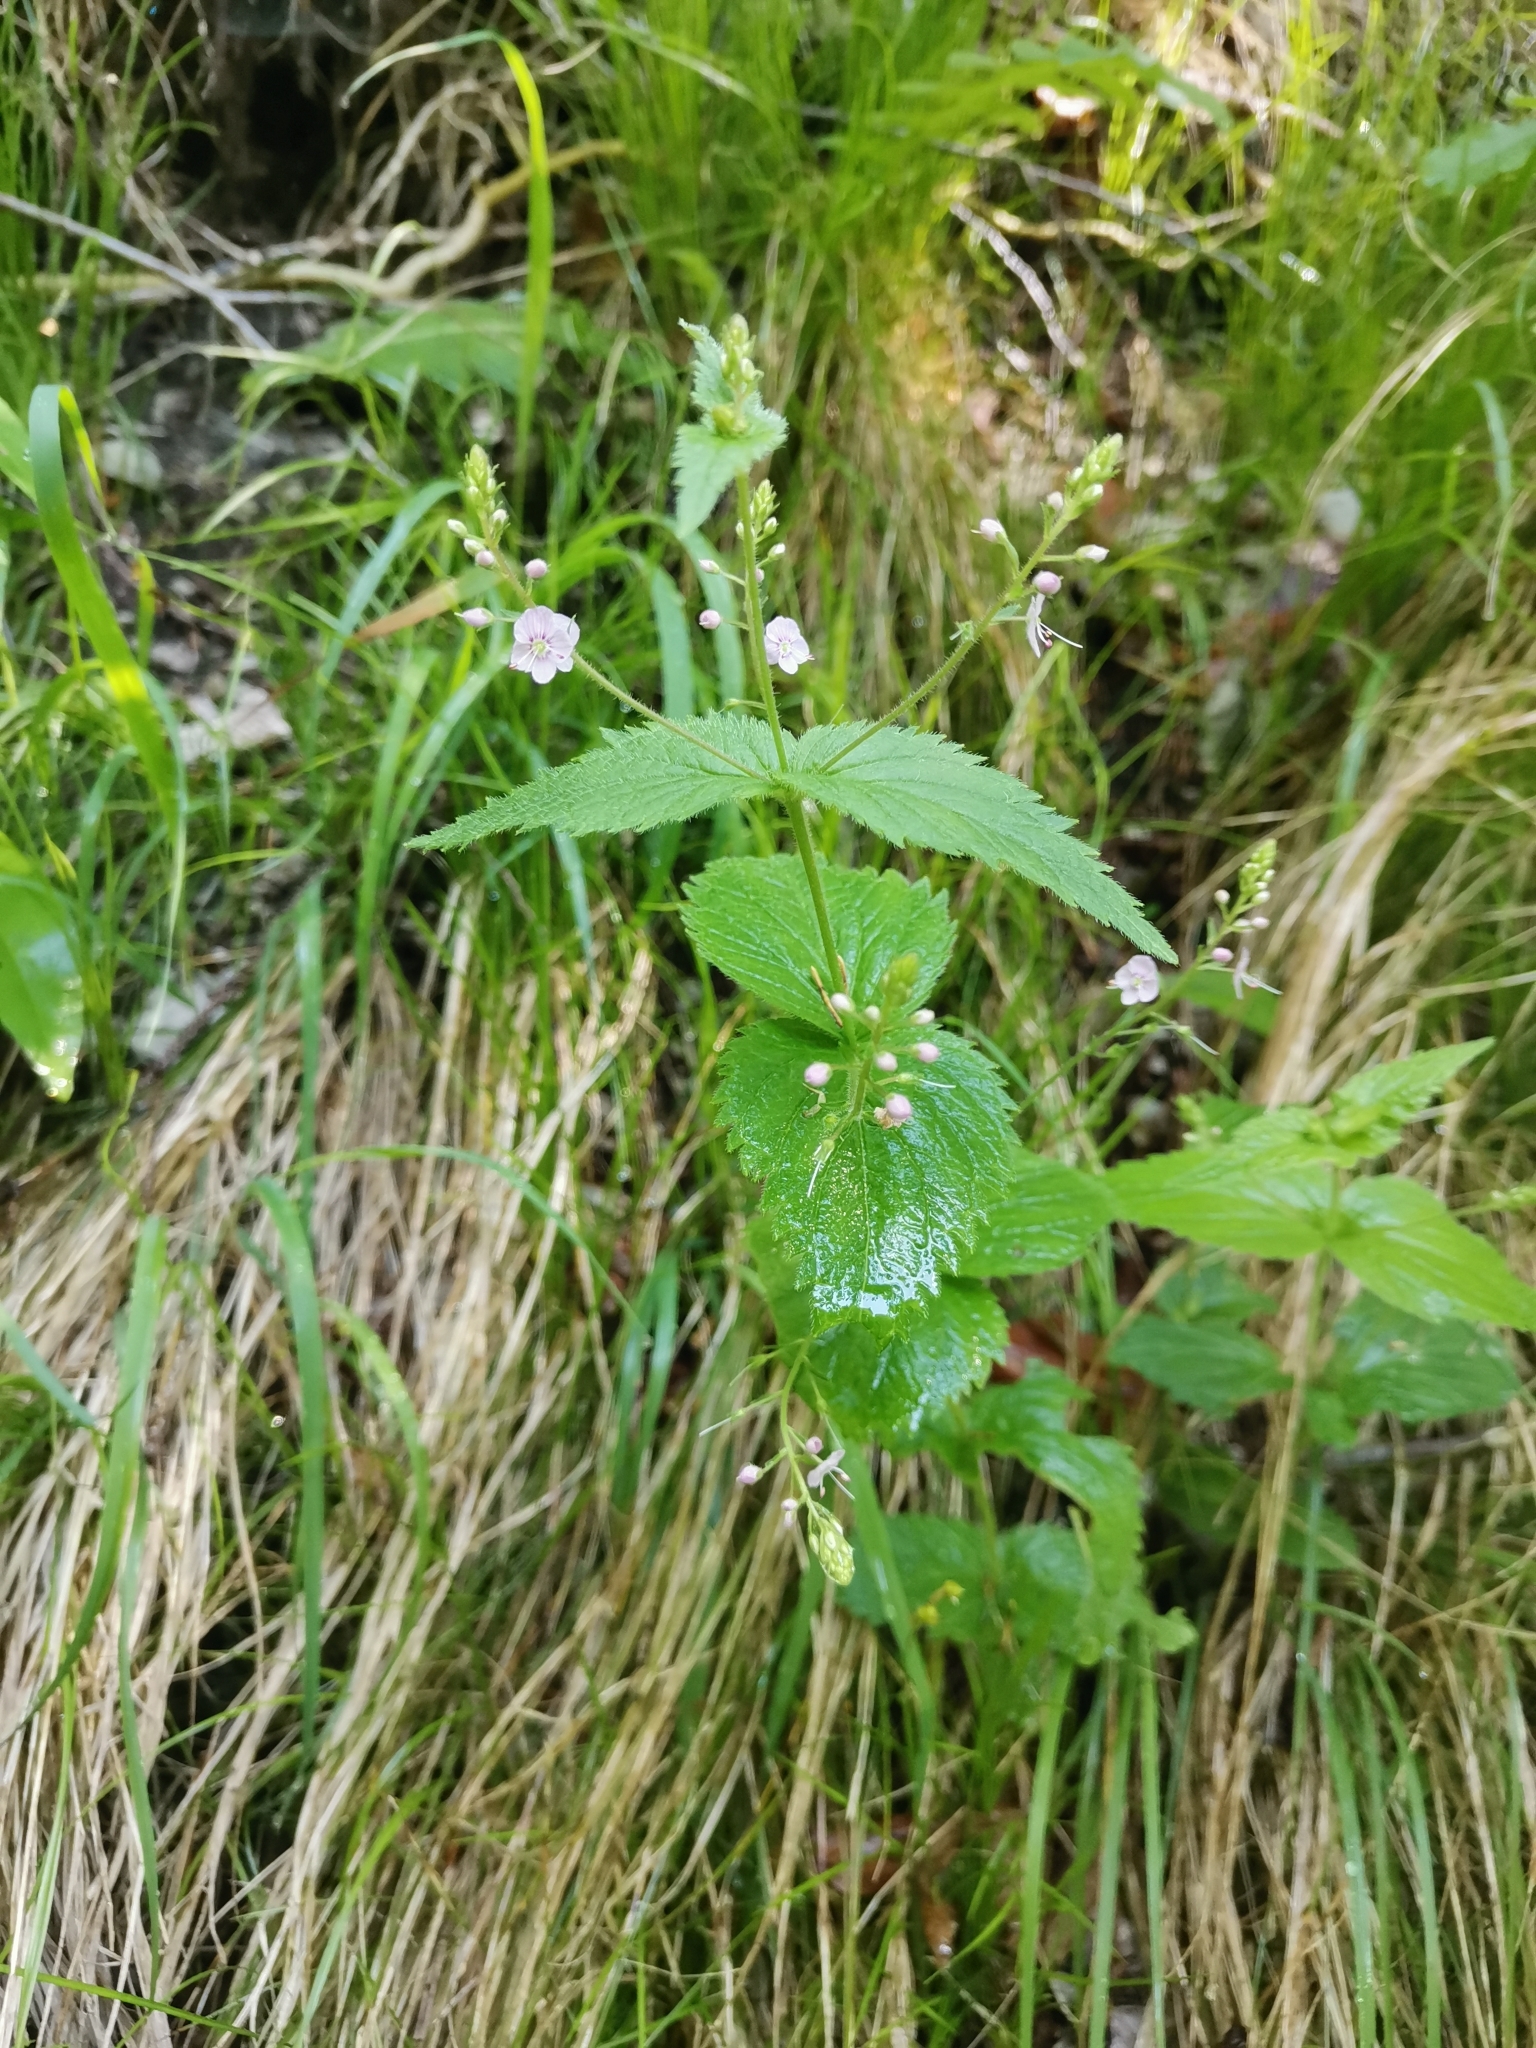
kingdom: Plantae
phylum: Tracheophyta
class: Magnoliopsida
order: Lamiales
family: Plantaginaceae
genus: Veronica
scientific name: Veronica urticifolia
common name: Nettle-leaf speedwell
